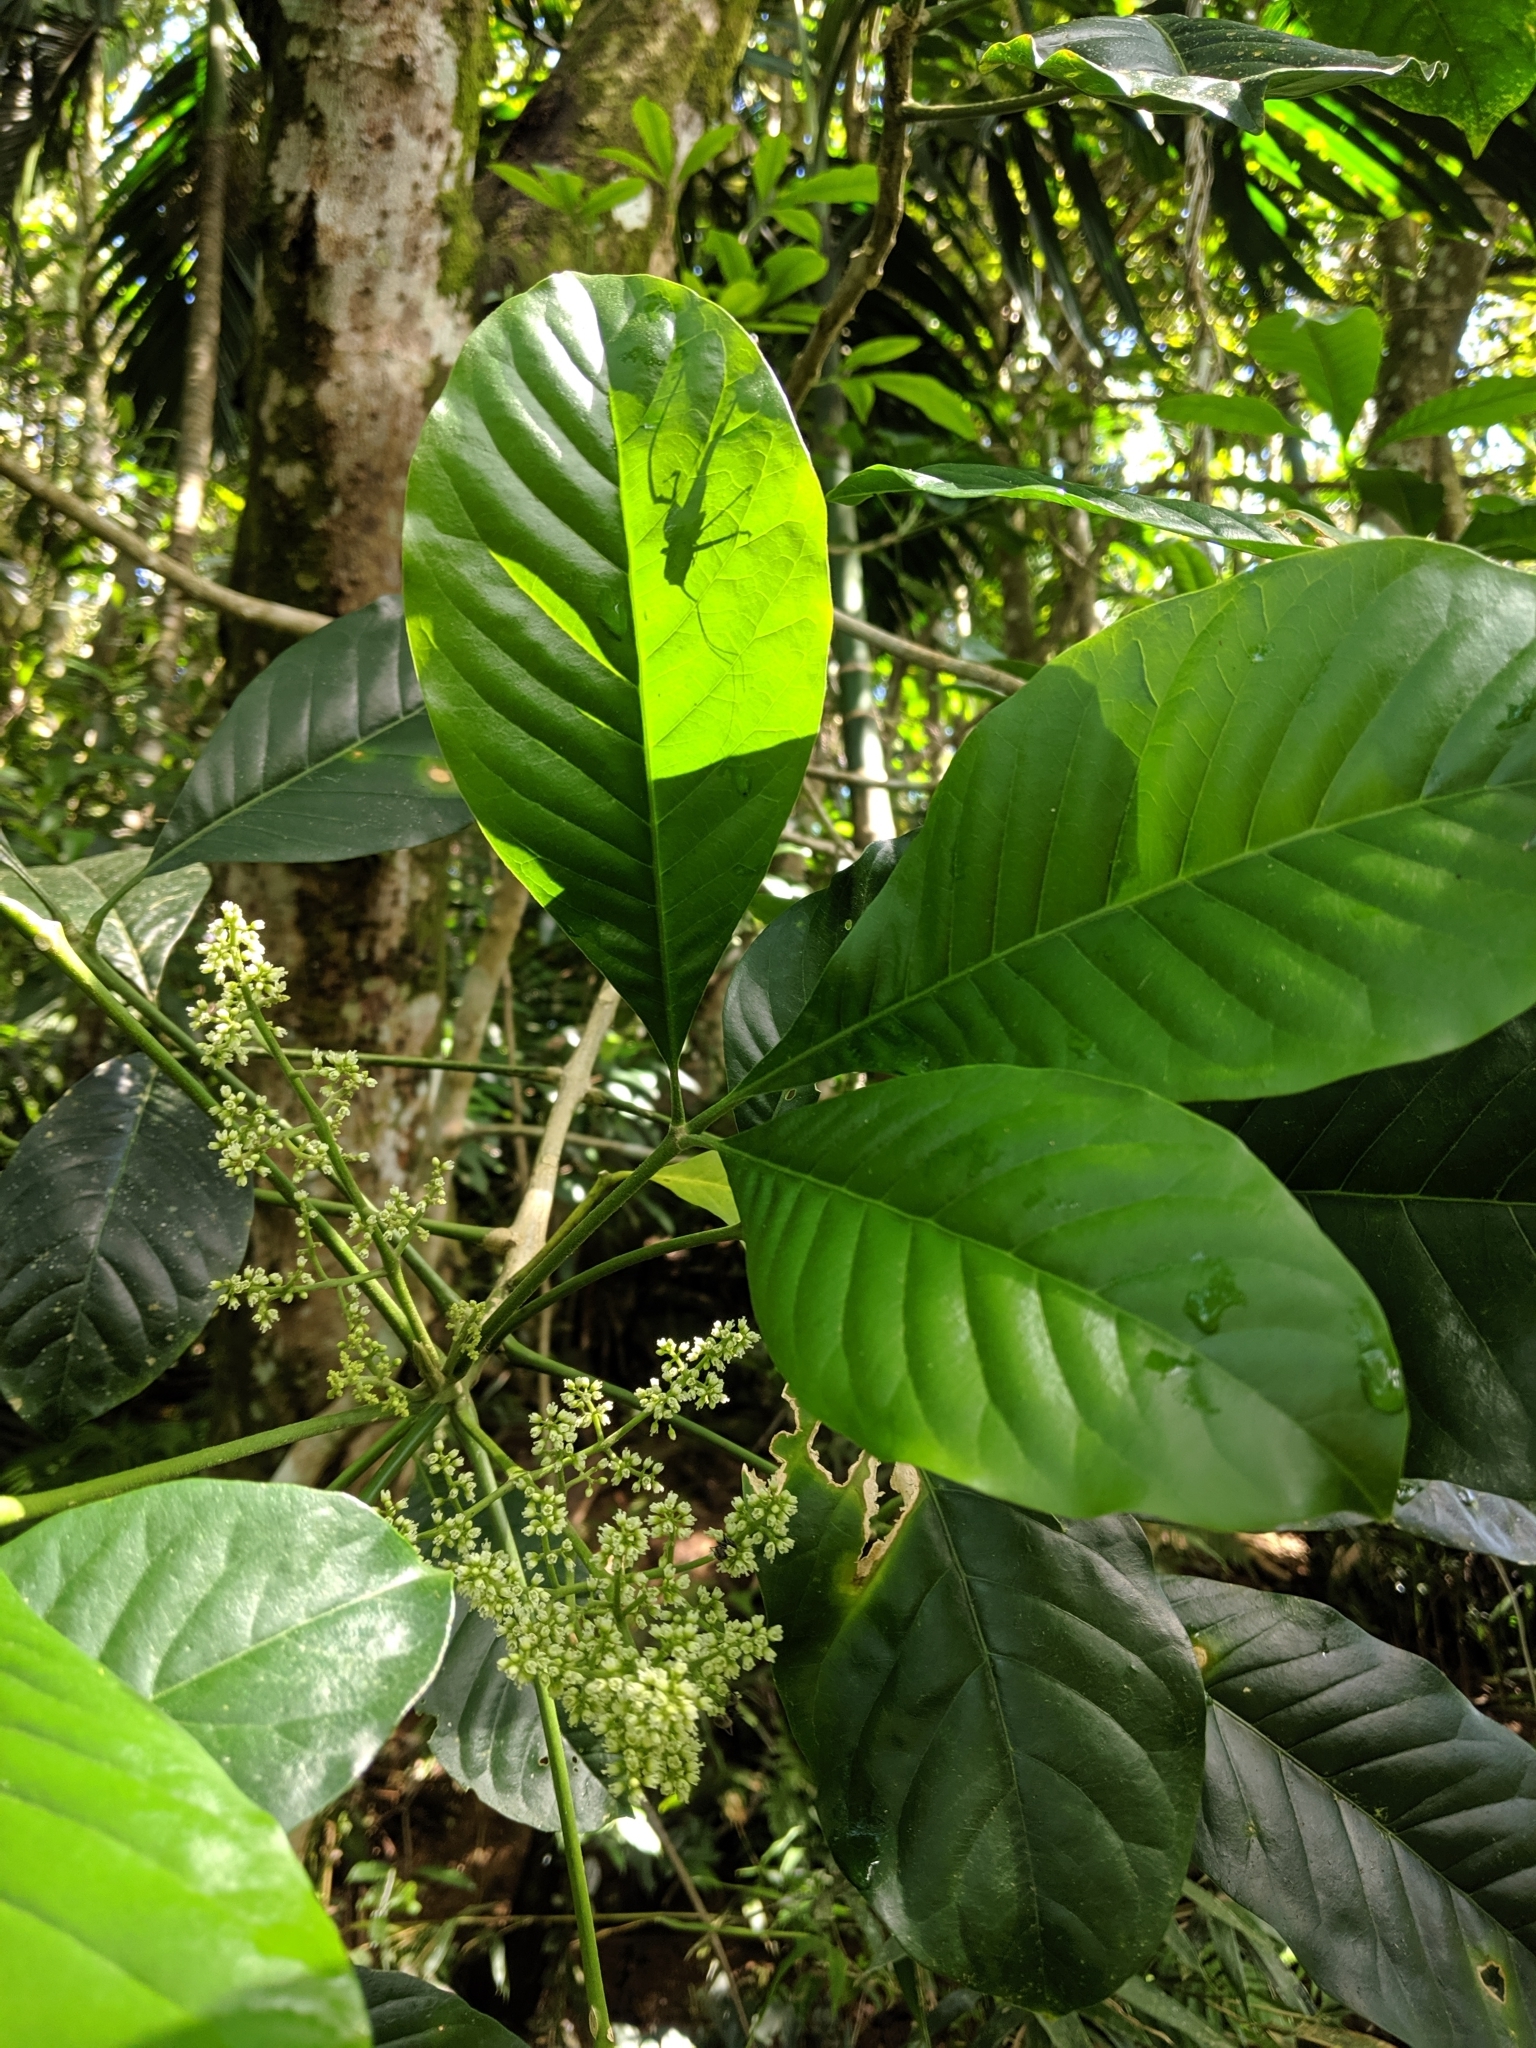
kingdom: Plantae
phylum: Tracheophyta
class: Magnoliopsida
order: Sapindales
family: Rutaceae
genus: Melicope
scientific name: Melicope semecarpifolia
